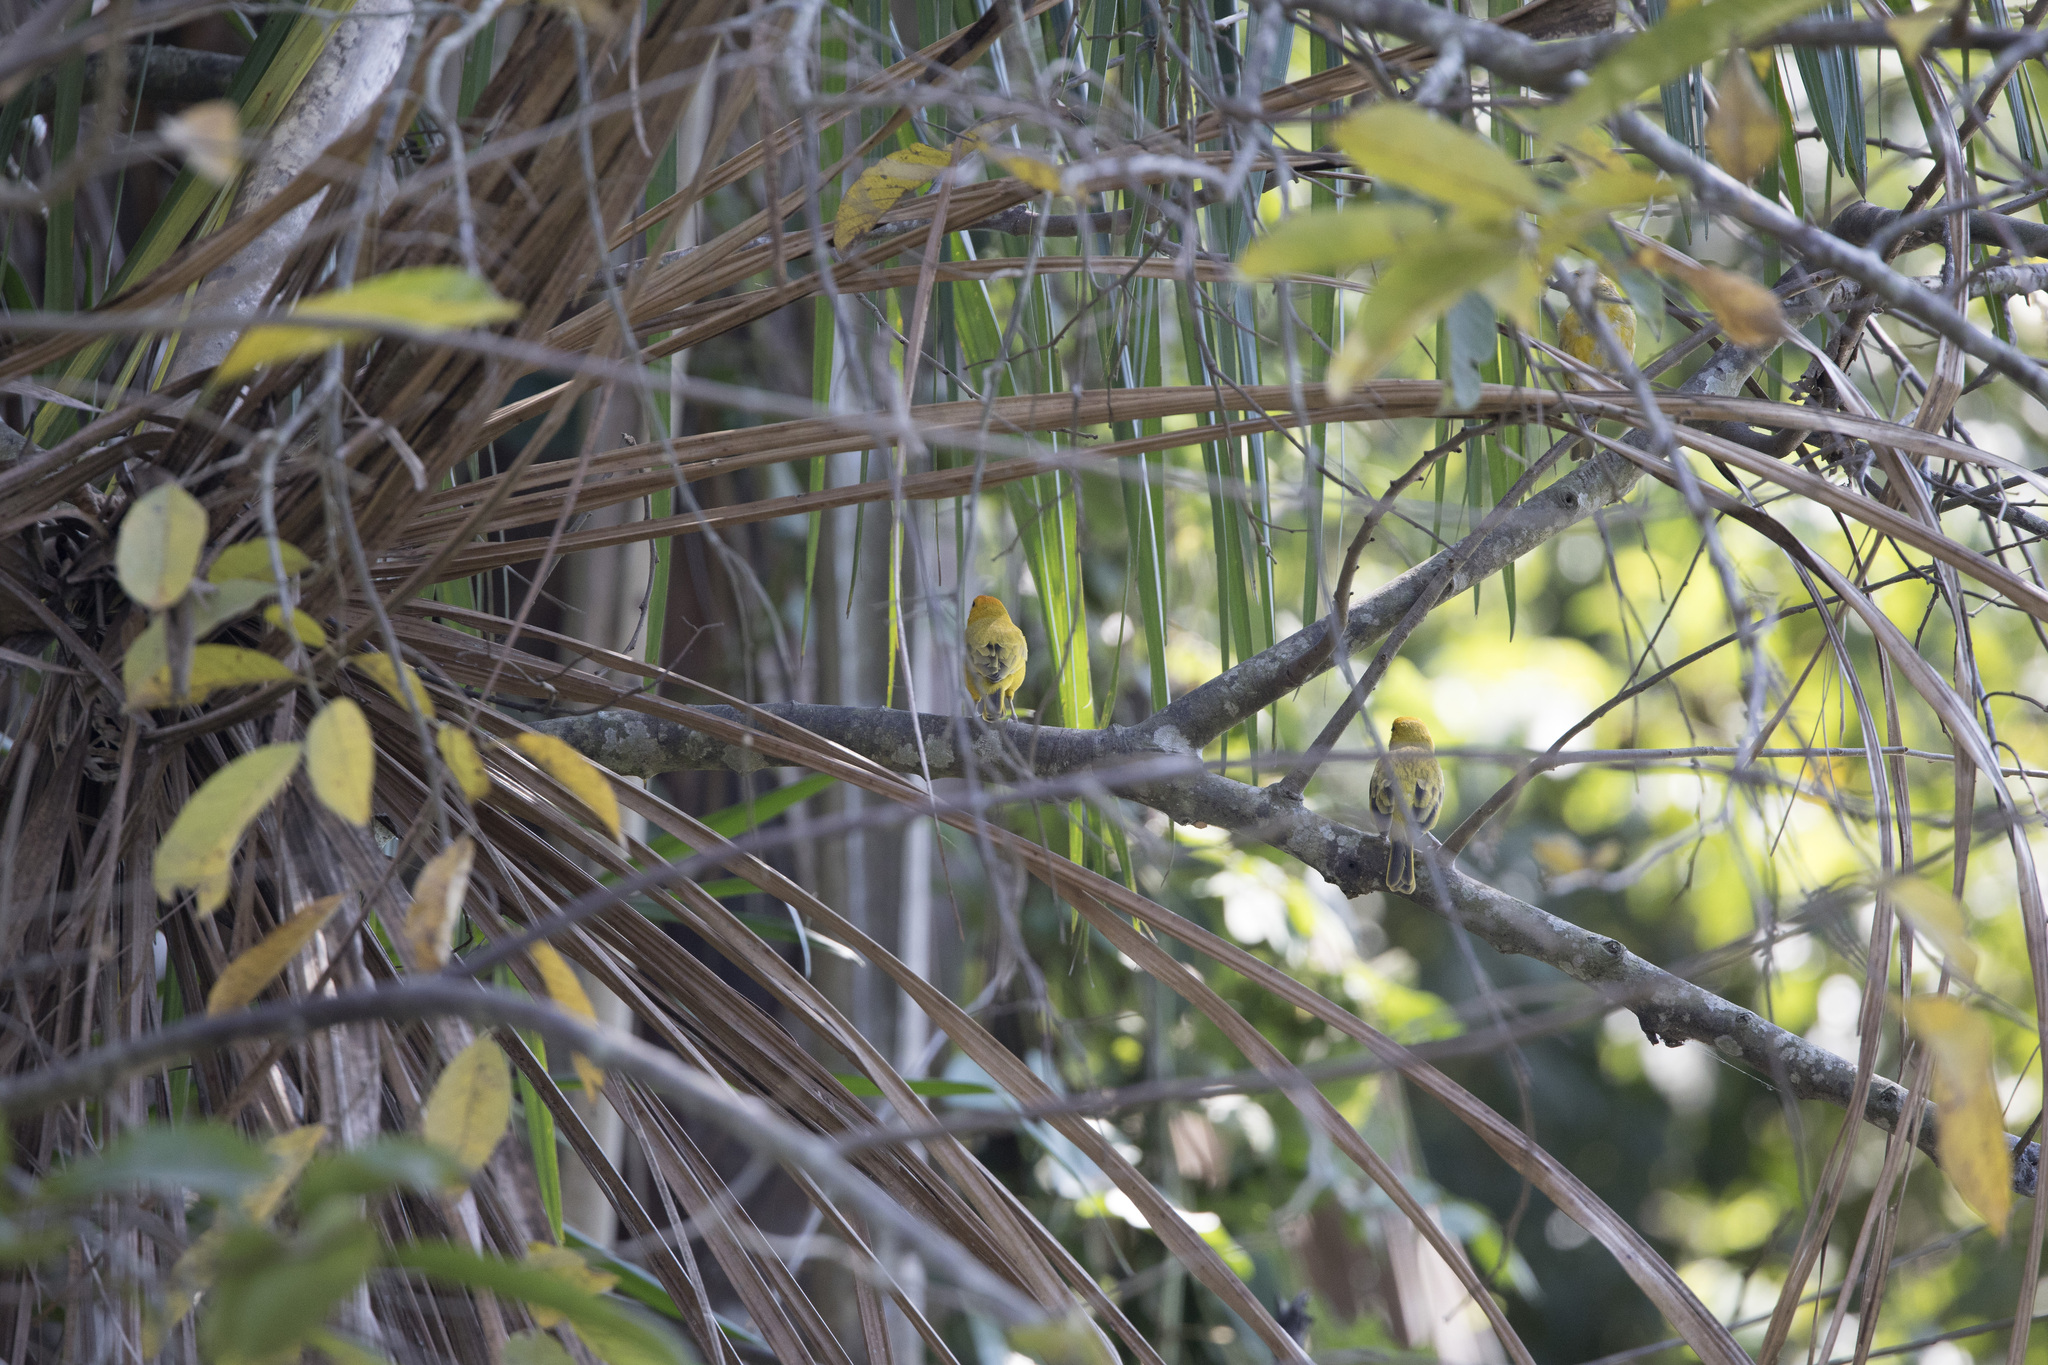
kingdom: Animalia
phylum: Chordata
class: Aves
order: Passeriformes
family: Thraupidae
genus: Sicalis
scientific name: Sicalis flaveola
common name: Saffron finch
